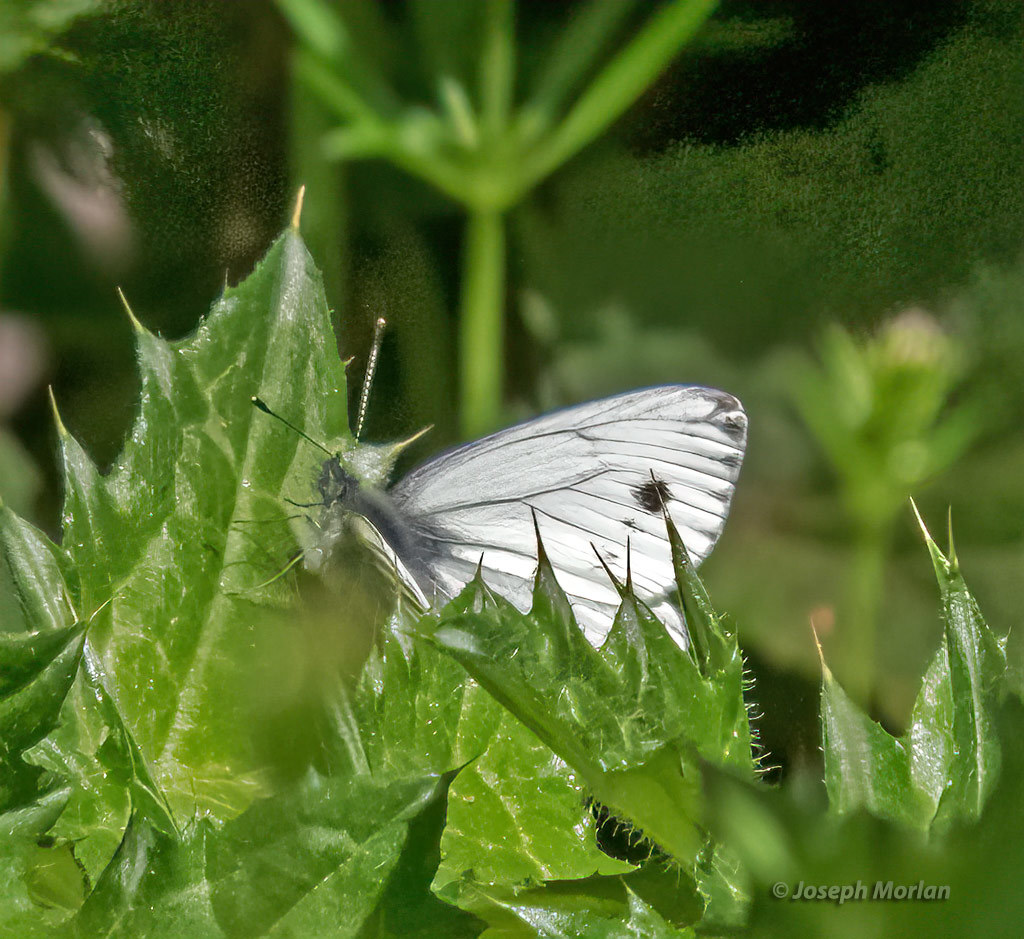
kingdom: Animalia
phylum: Arthropoda
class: Insecta
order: Lepidoptera
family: Pieridae
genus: Pieris
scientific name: Pieris marginalis
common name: Margined white
